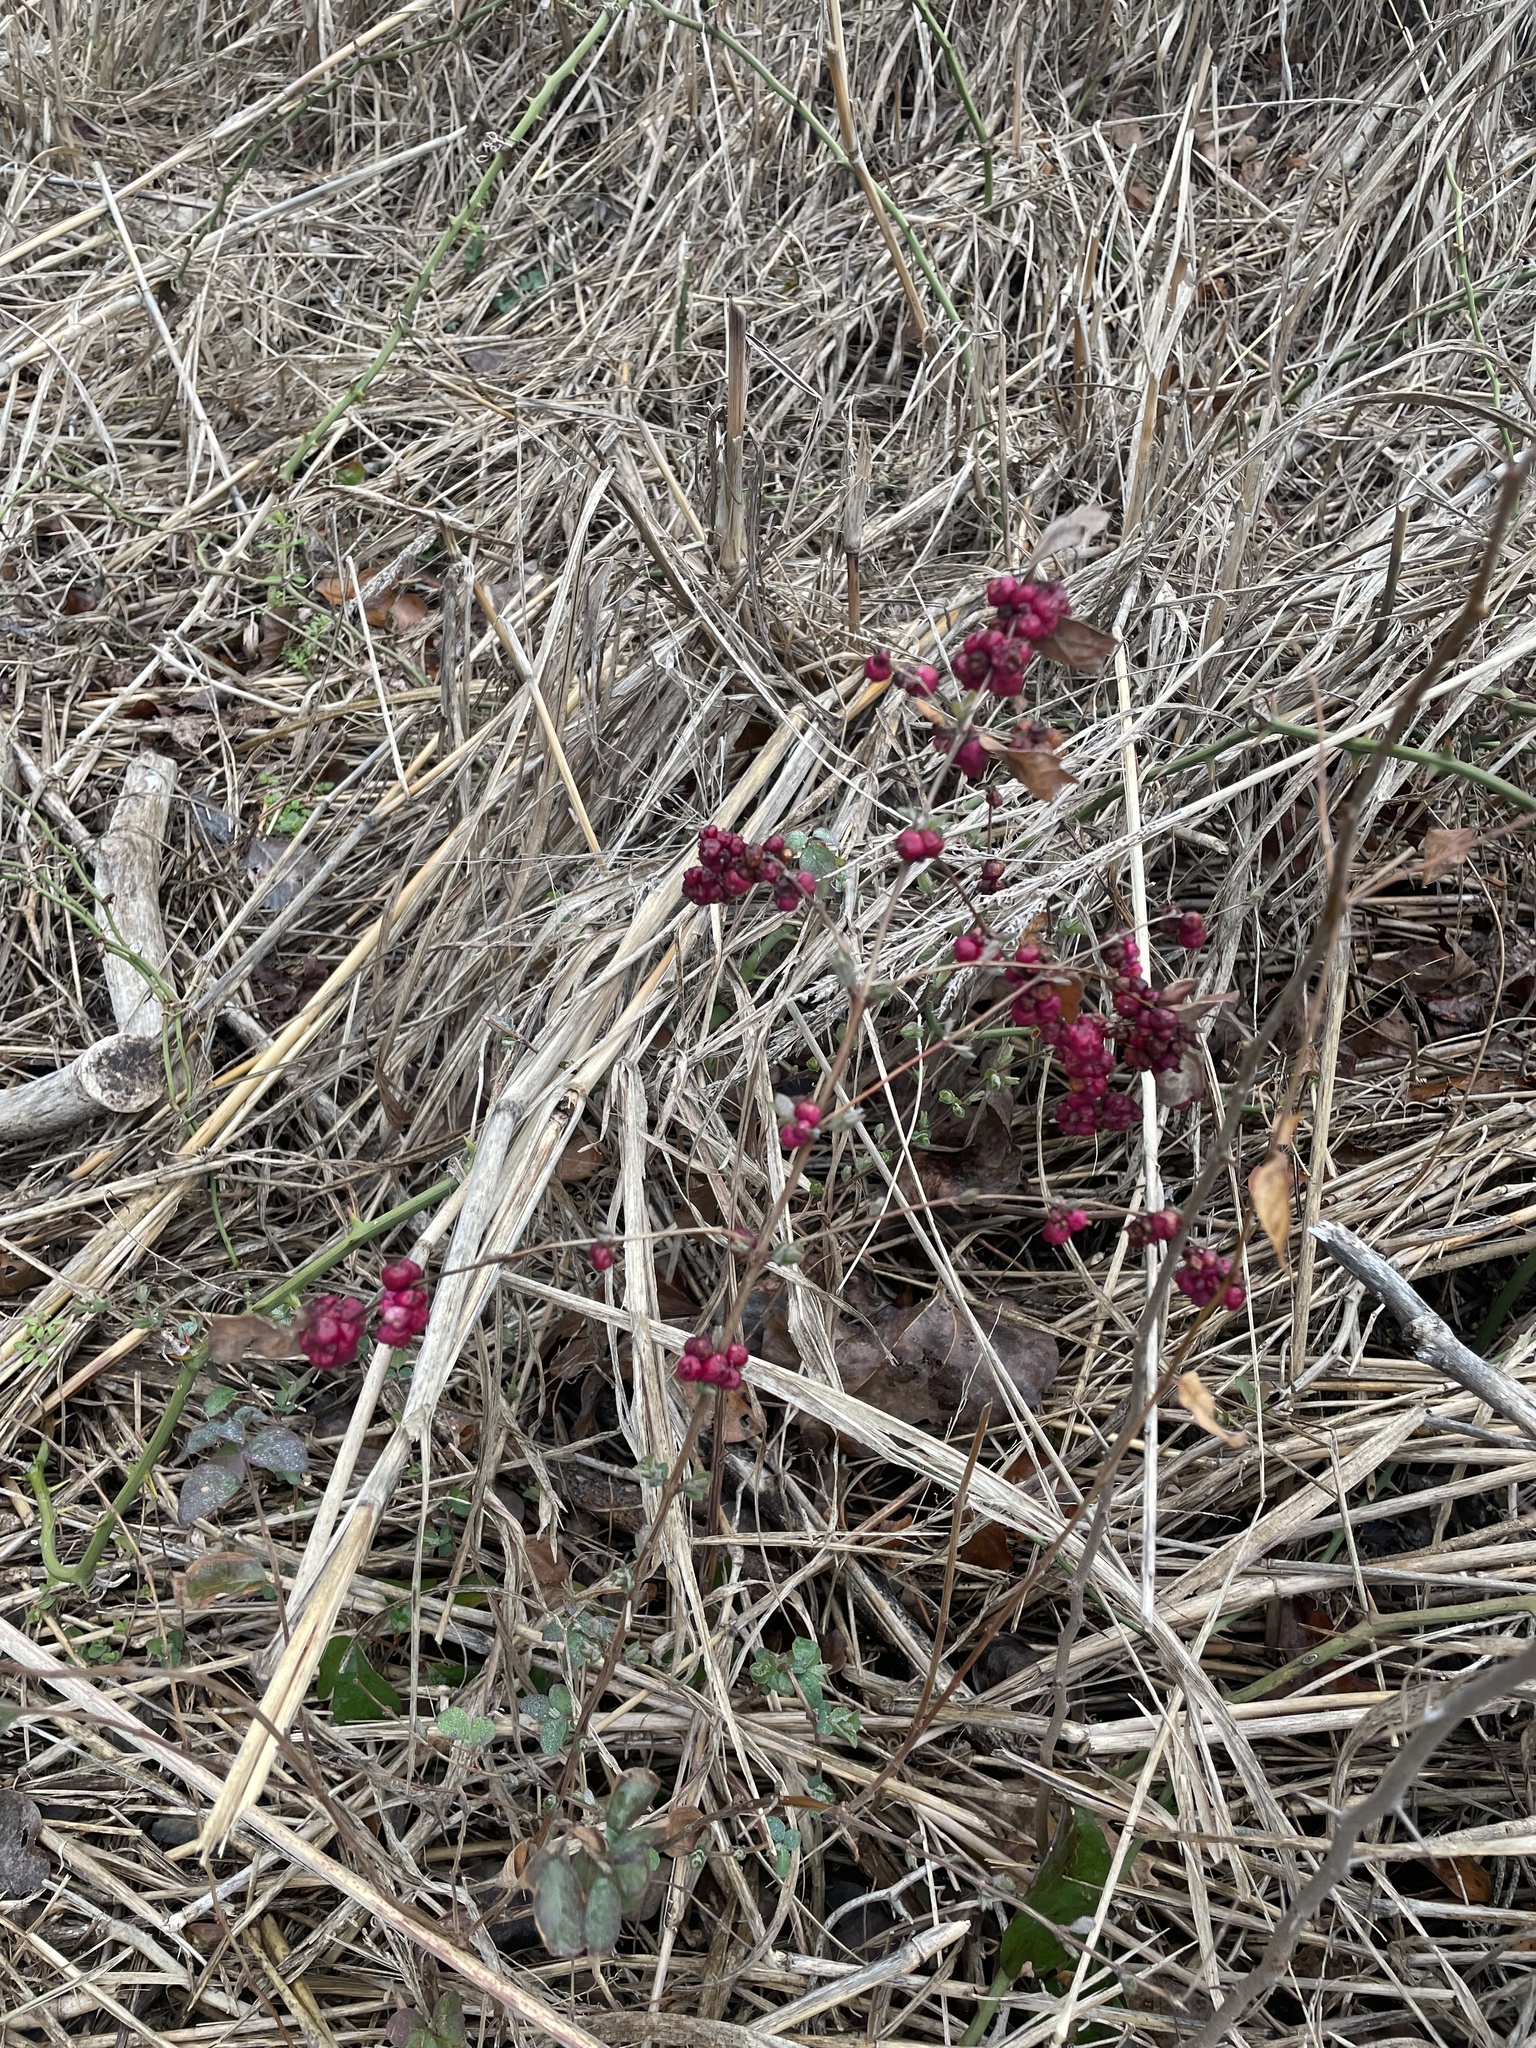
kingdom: Plantae
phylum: Tracheophyta
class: Magnoliopsida
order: Dipsacales
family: Caprifoliaceae
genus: Symphoricarpos
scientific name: Symphoricarpos orbiculatus
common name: Coralberry
